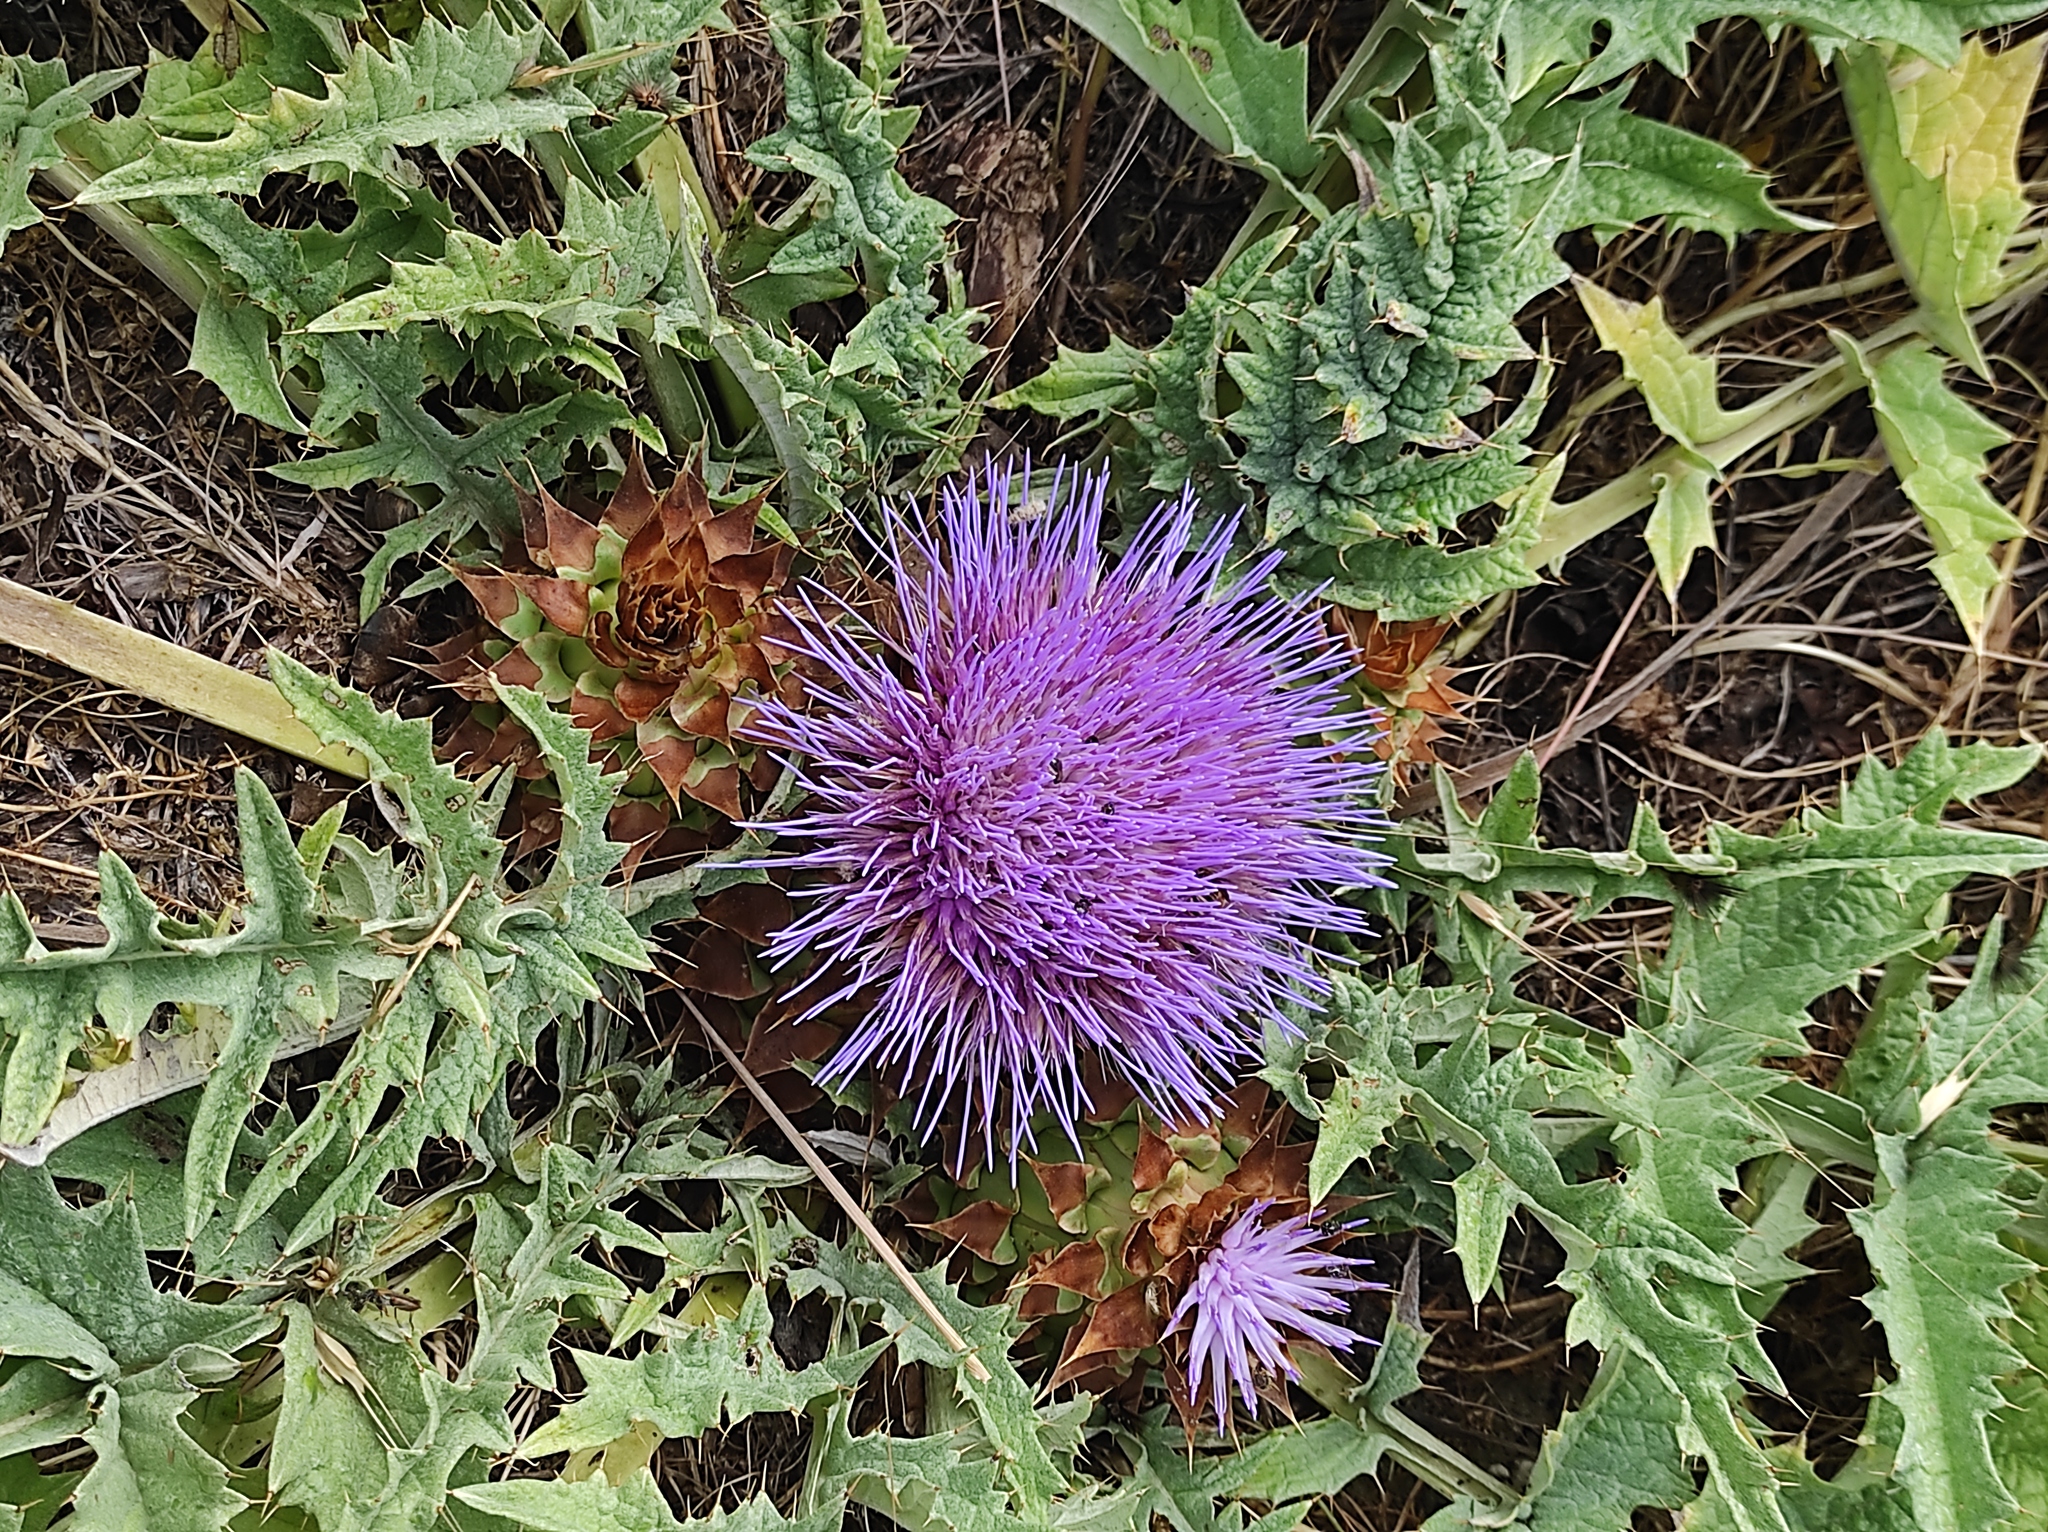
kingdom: Plantae
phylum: Tracheophyta
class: Magnoliopsida
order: Asterales
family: Asteraceae
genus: Cynara
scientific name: Cynara tournefortii
